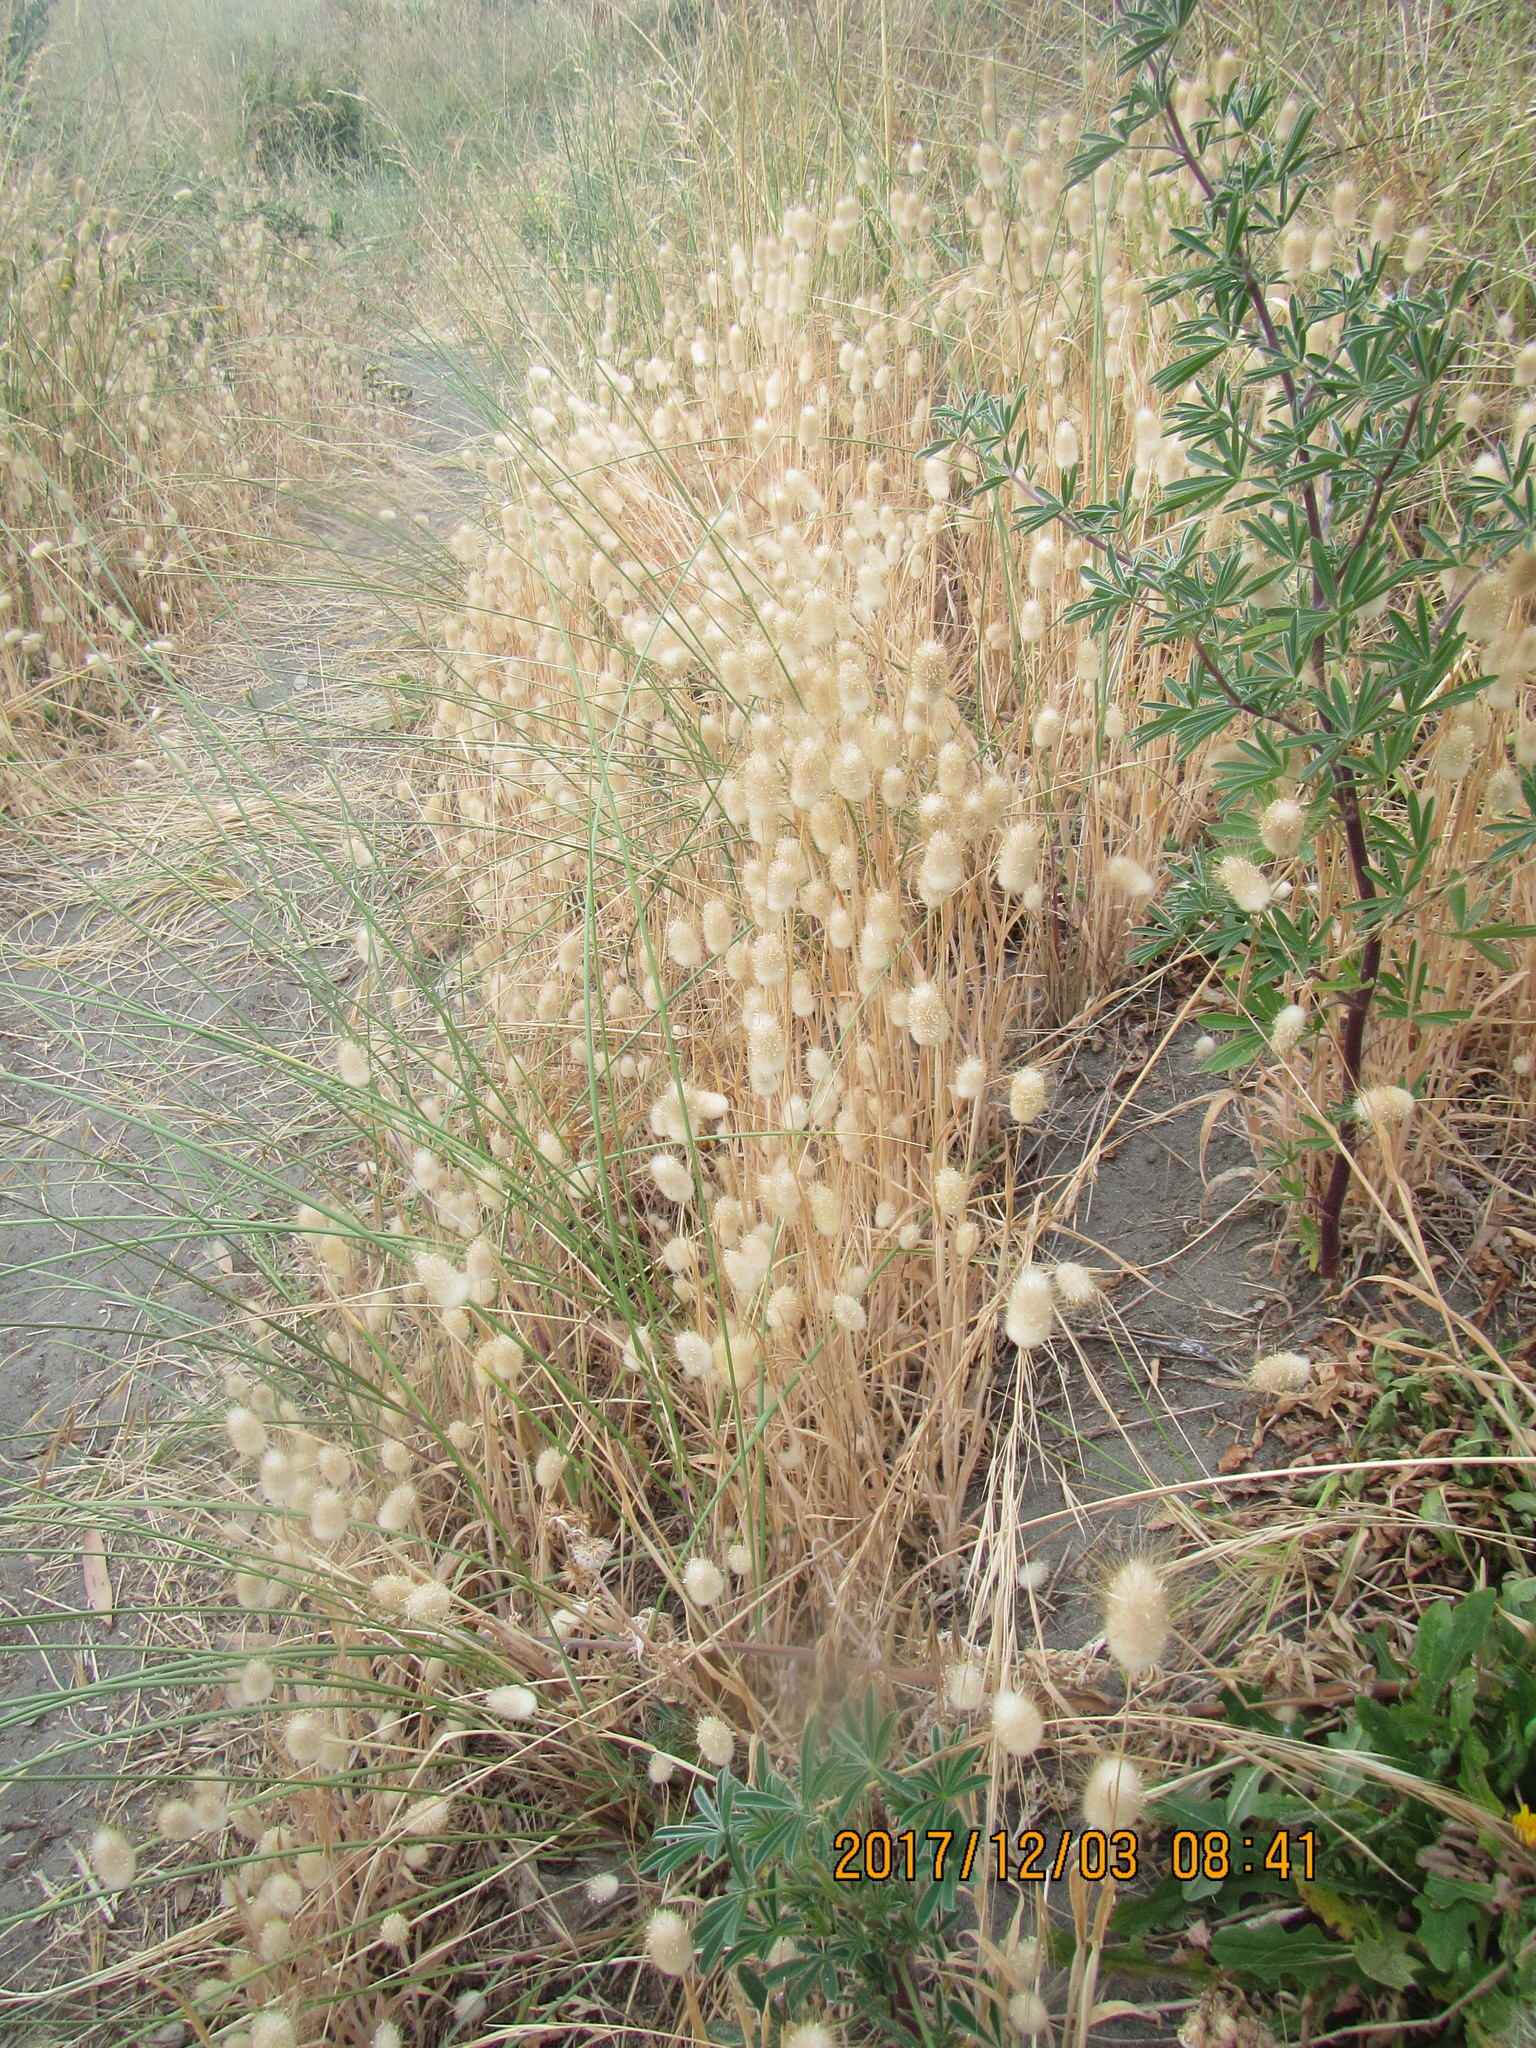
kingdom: Plantae
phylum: Tracheophyta
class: Liliopsida
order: Poales
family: Poaceae
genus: Lagurus
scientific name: Lagurus ovatus
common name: Hare's-tail
